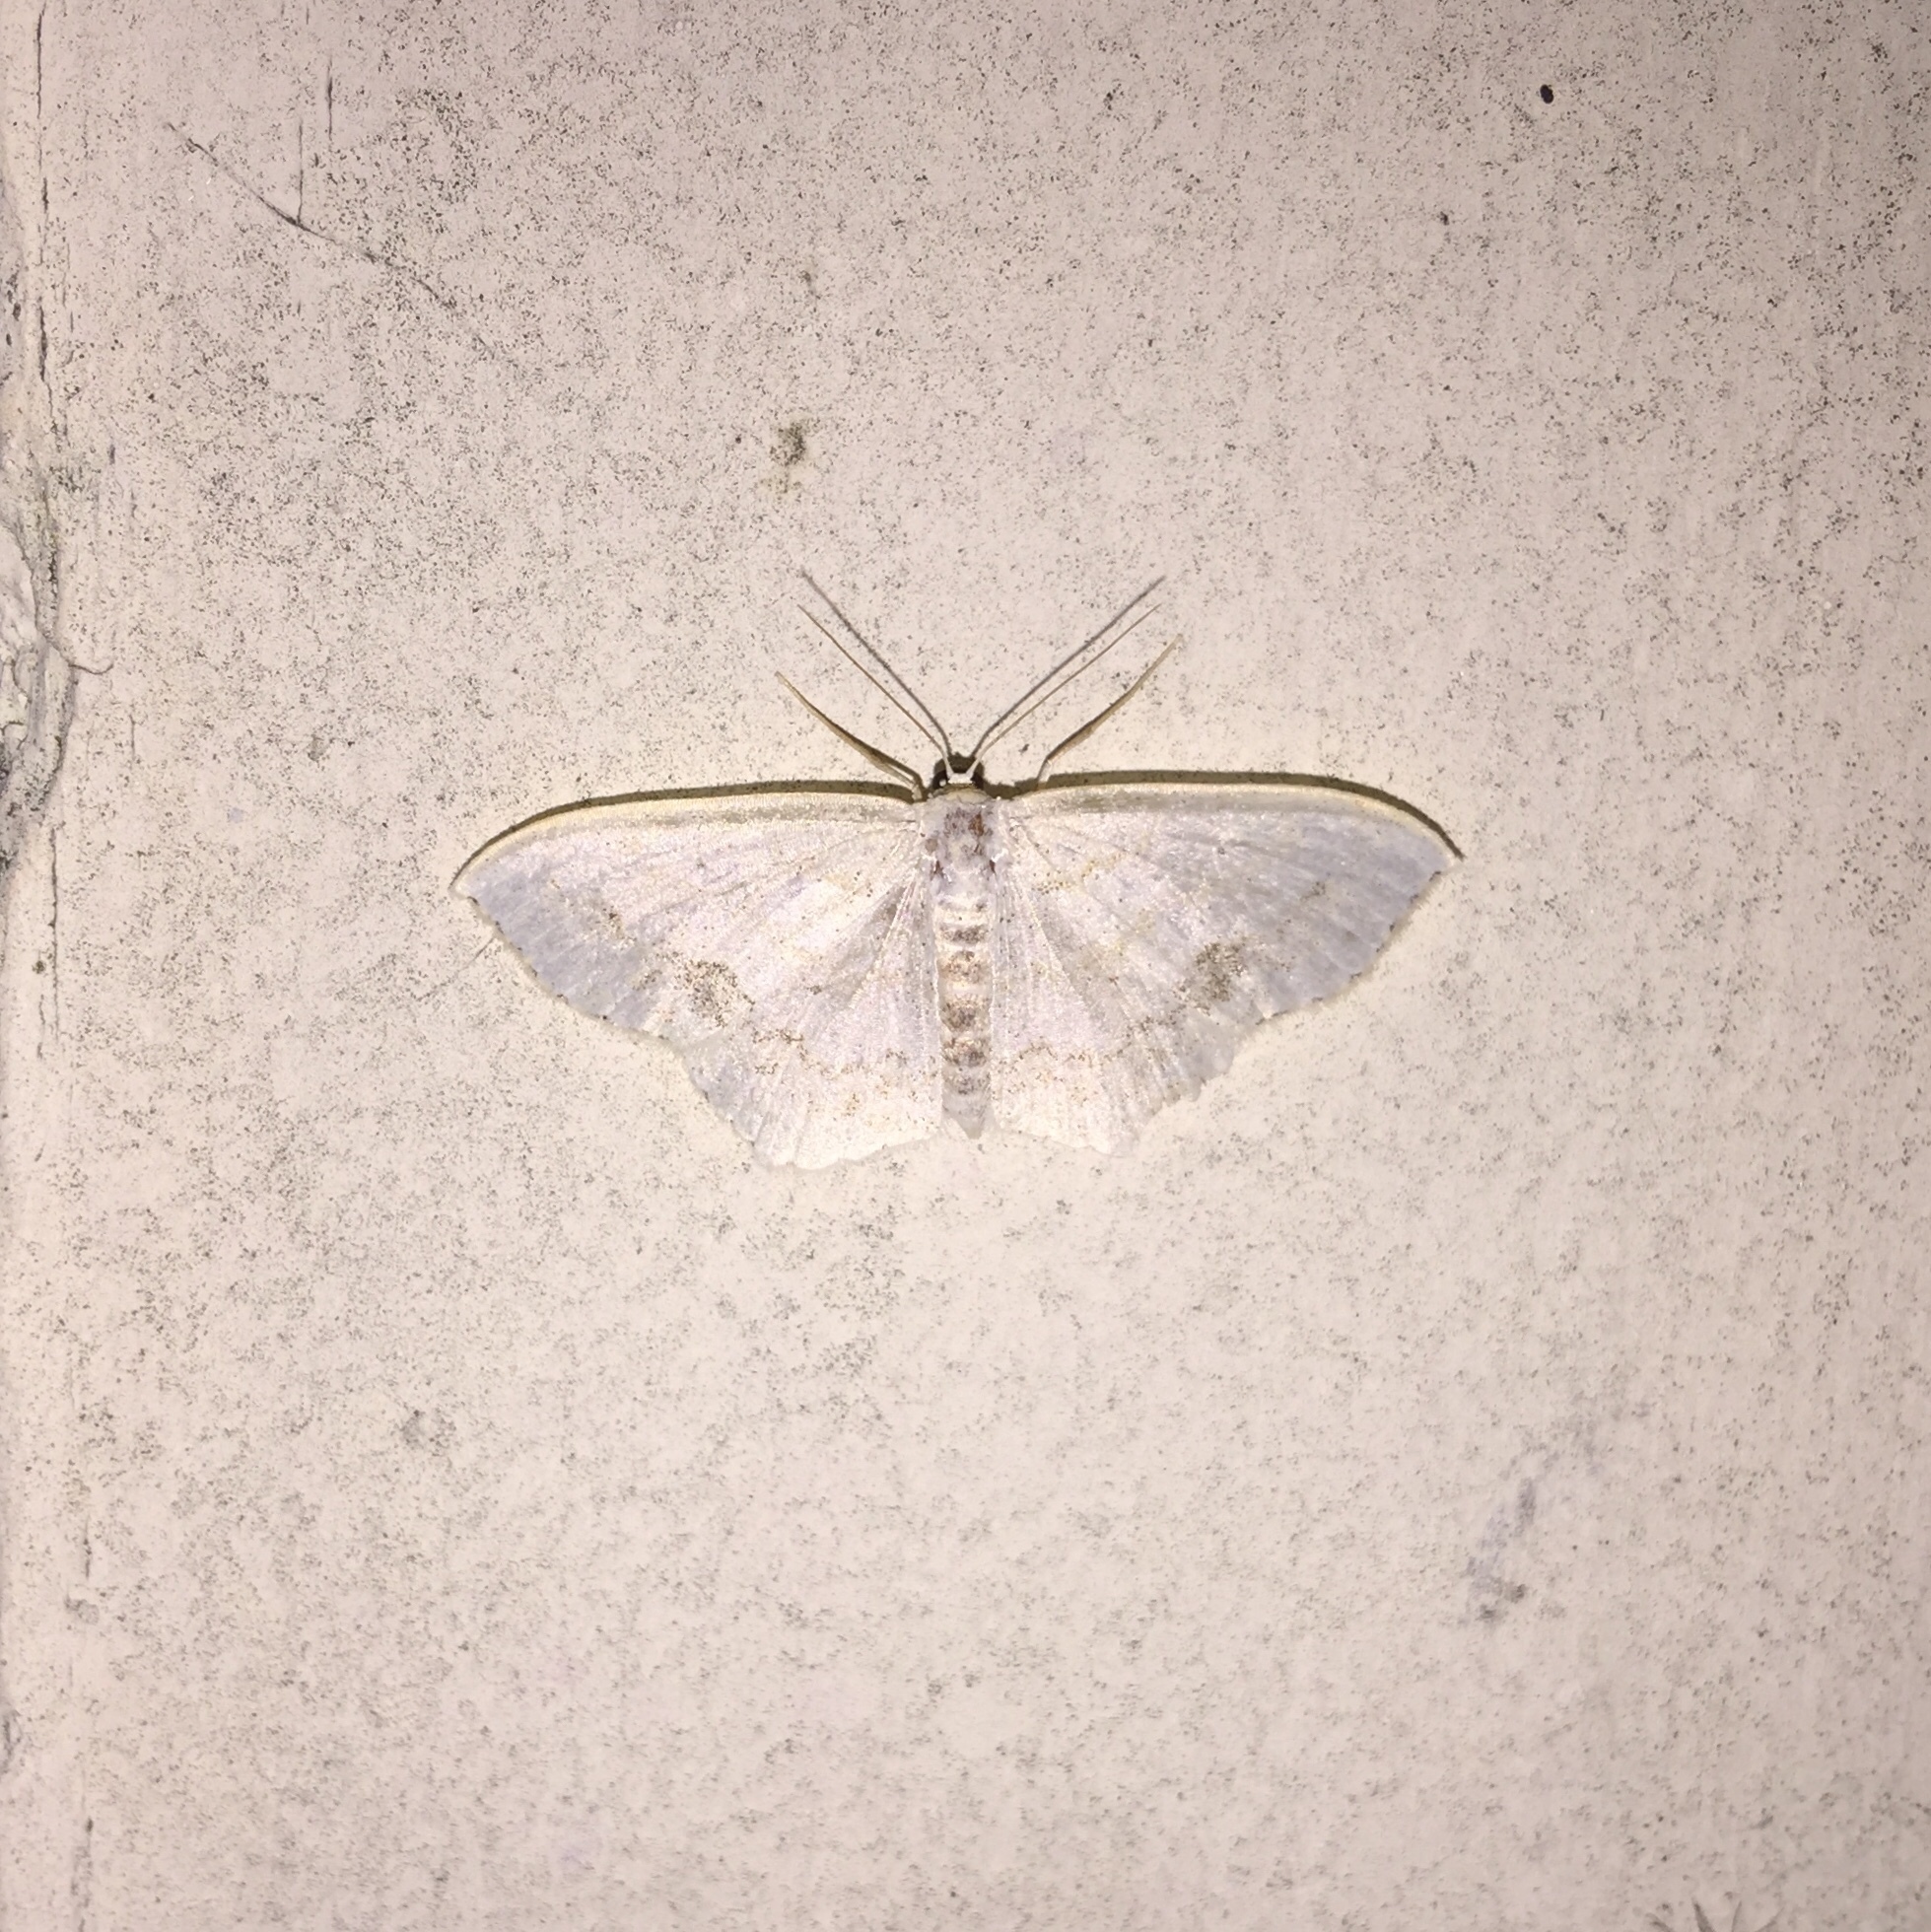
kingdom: Animalia
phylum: Arthropoda
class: Insecta
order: Lepidoptera
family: Geometridae
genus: Scopula
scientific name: Scopula limboundata
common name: Large lace border
